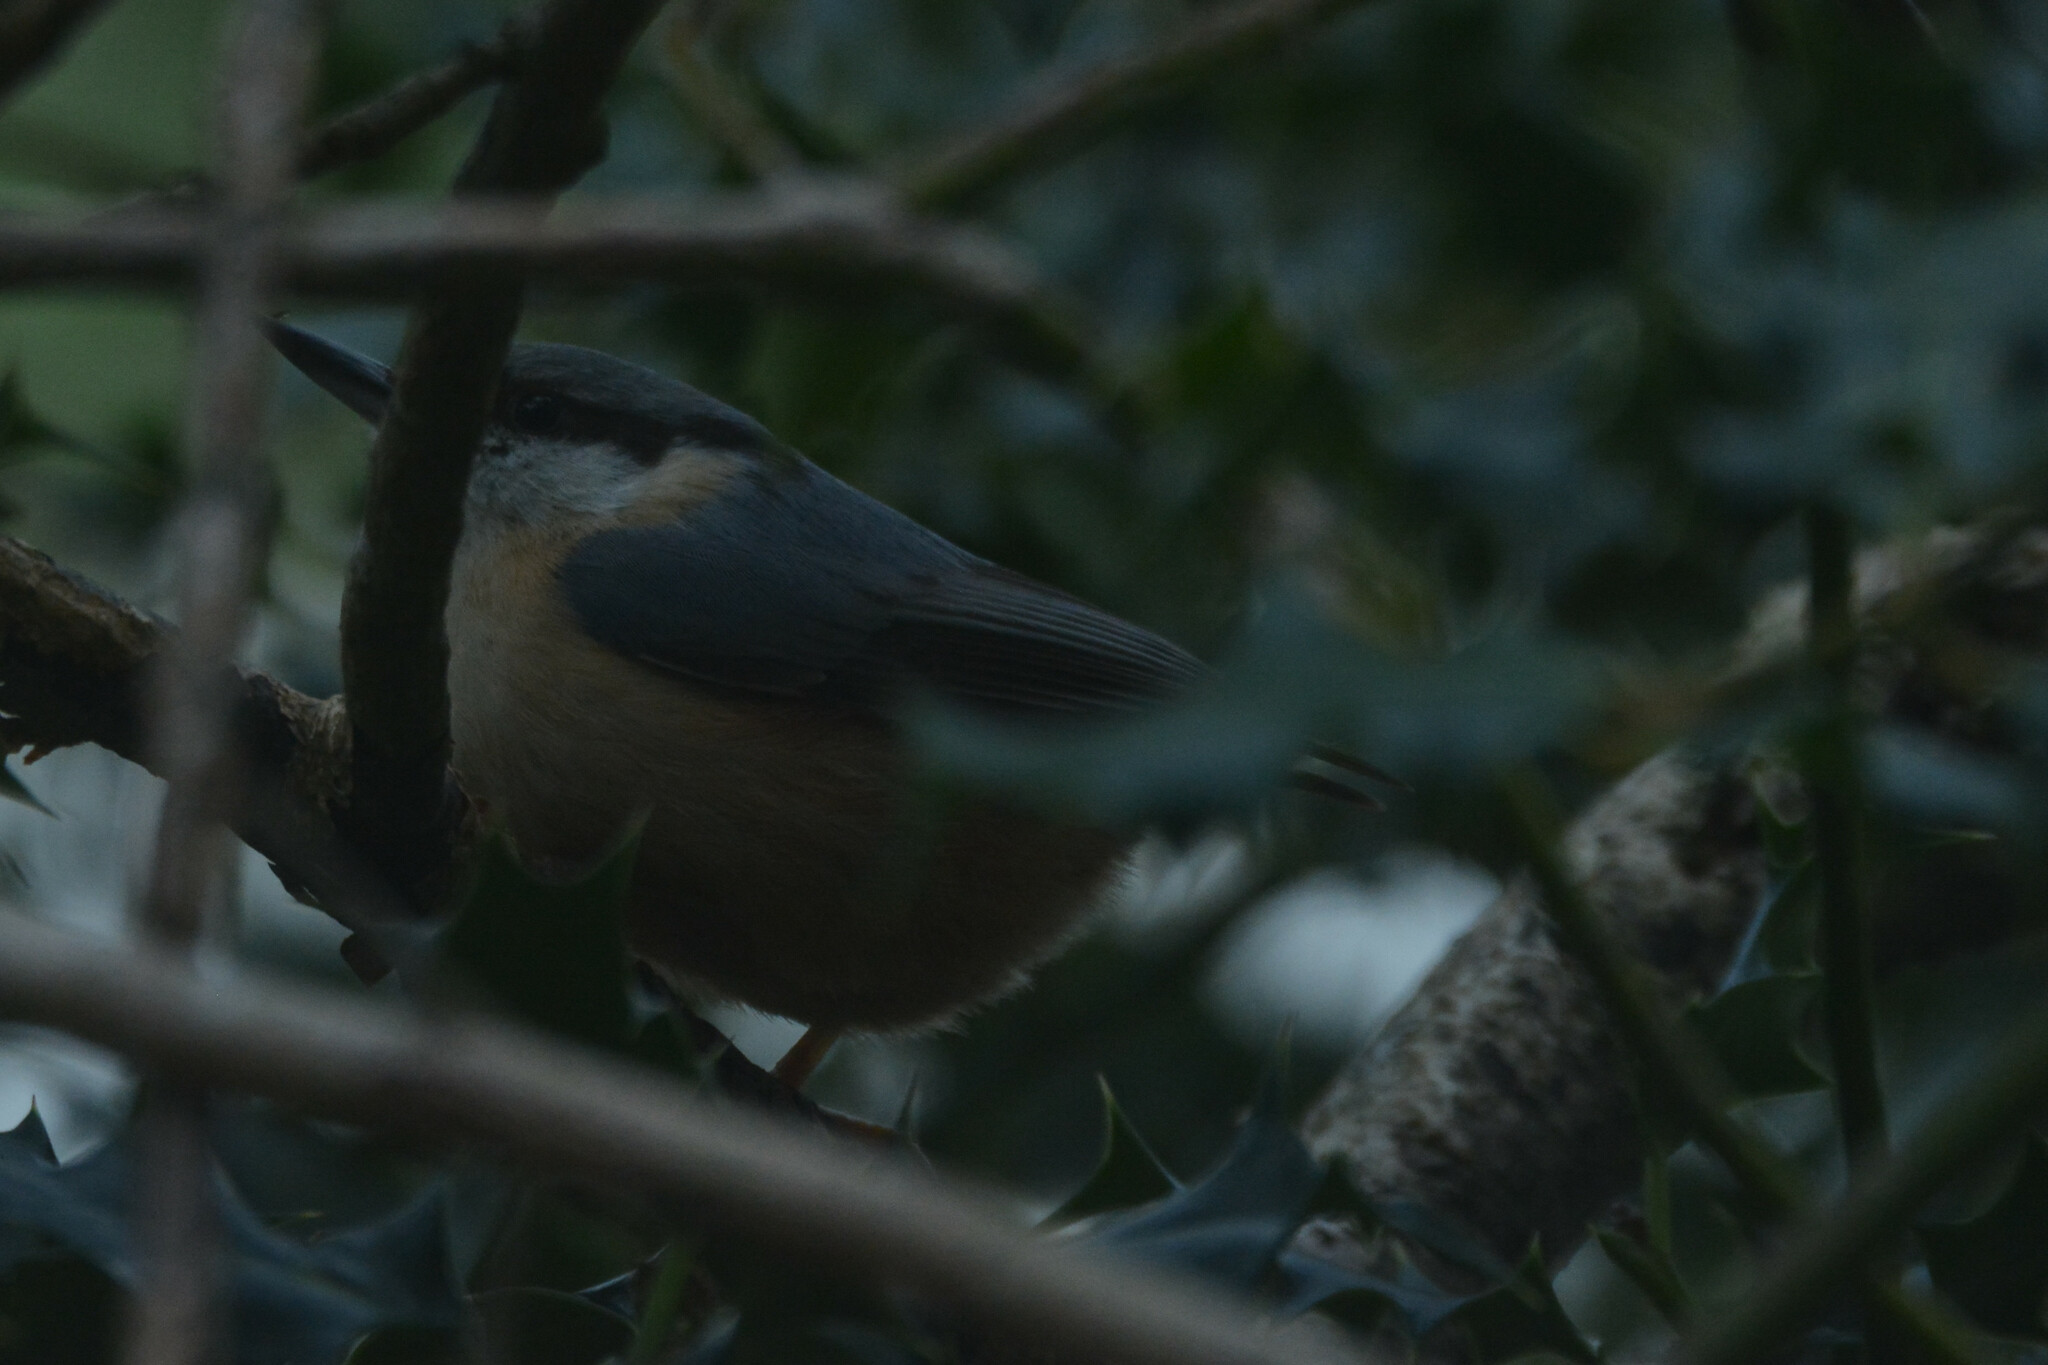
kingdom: Animalia
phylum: Chordata
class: Aves
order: Passeriformes
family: Sittidae
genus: Sitta
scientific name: Sitta europaea
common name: Eurasian nuthatch
